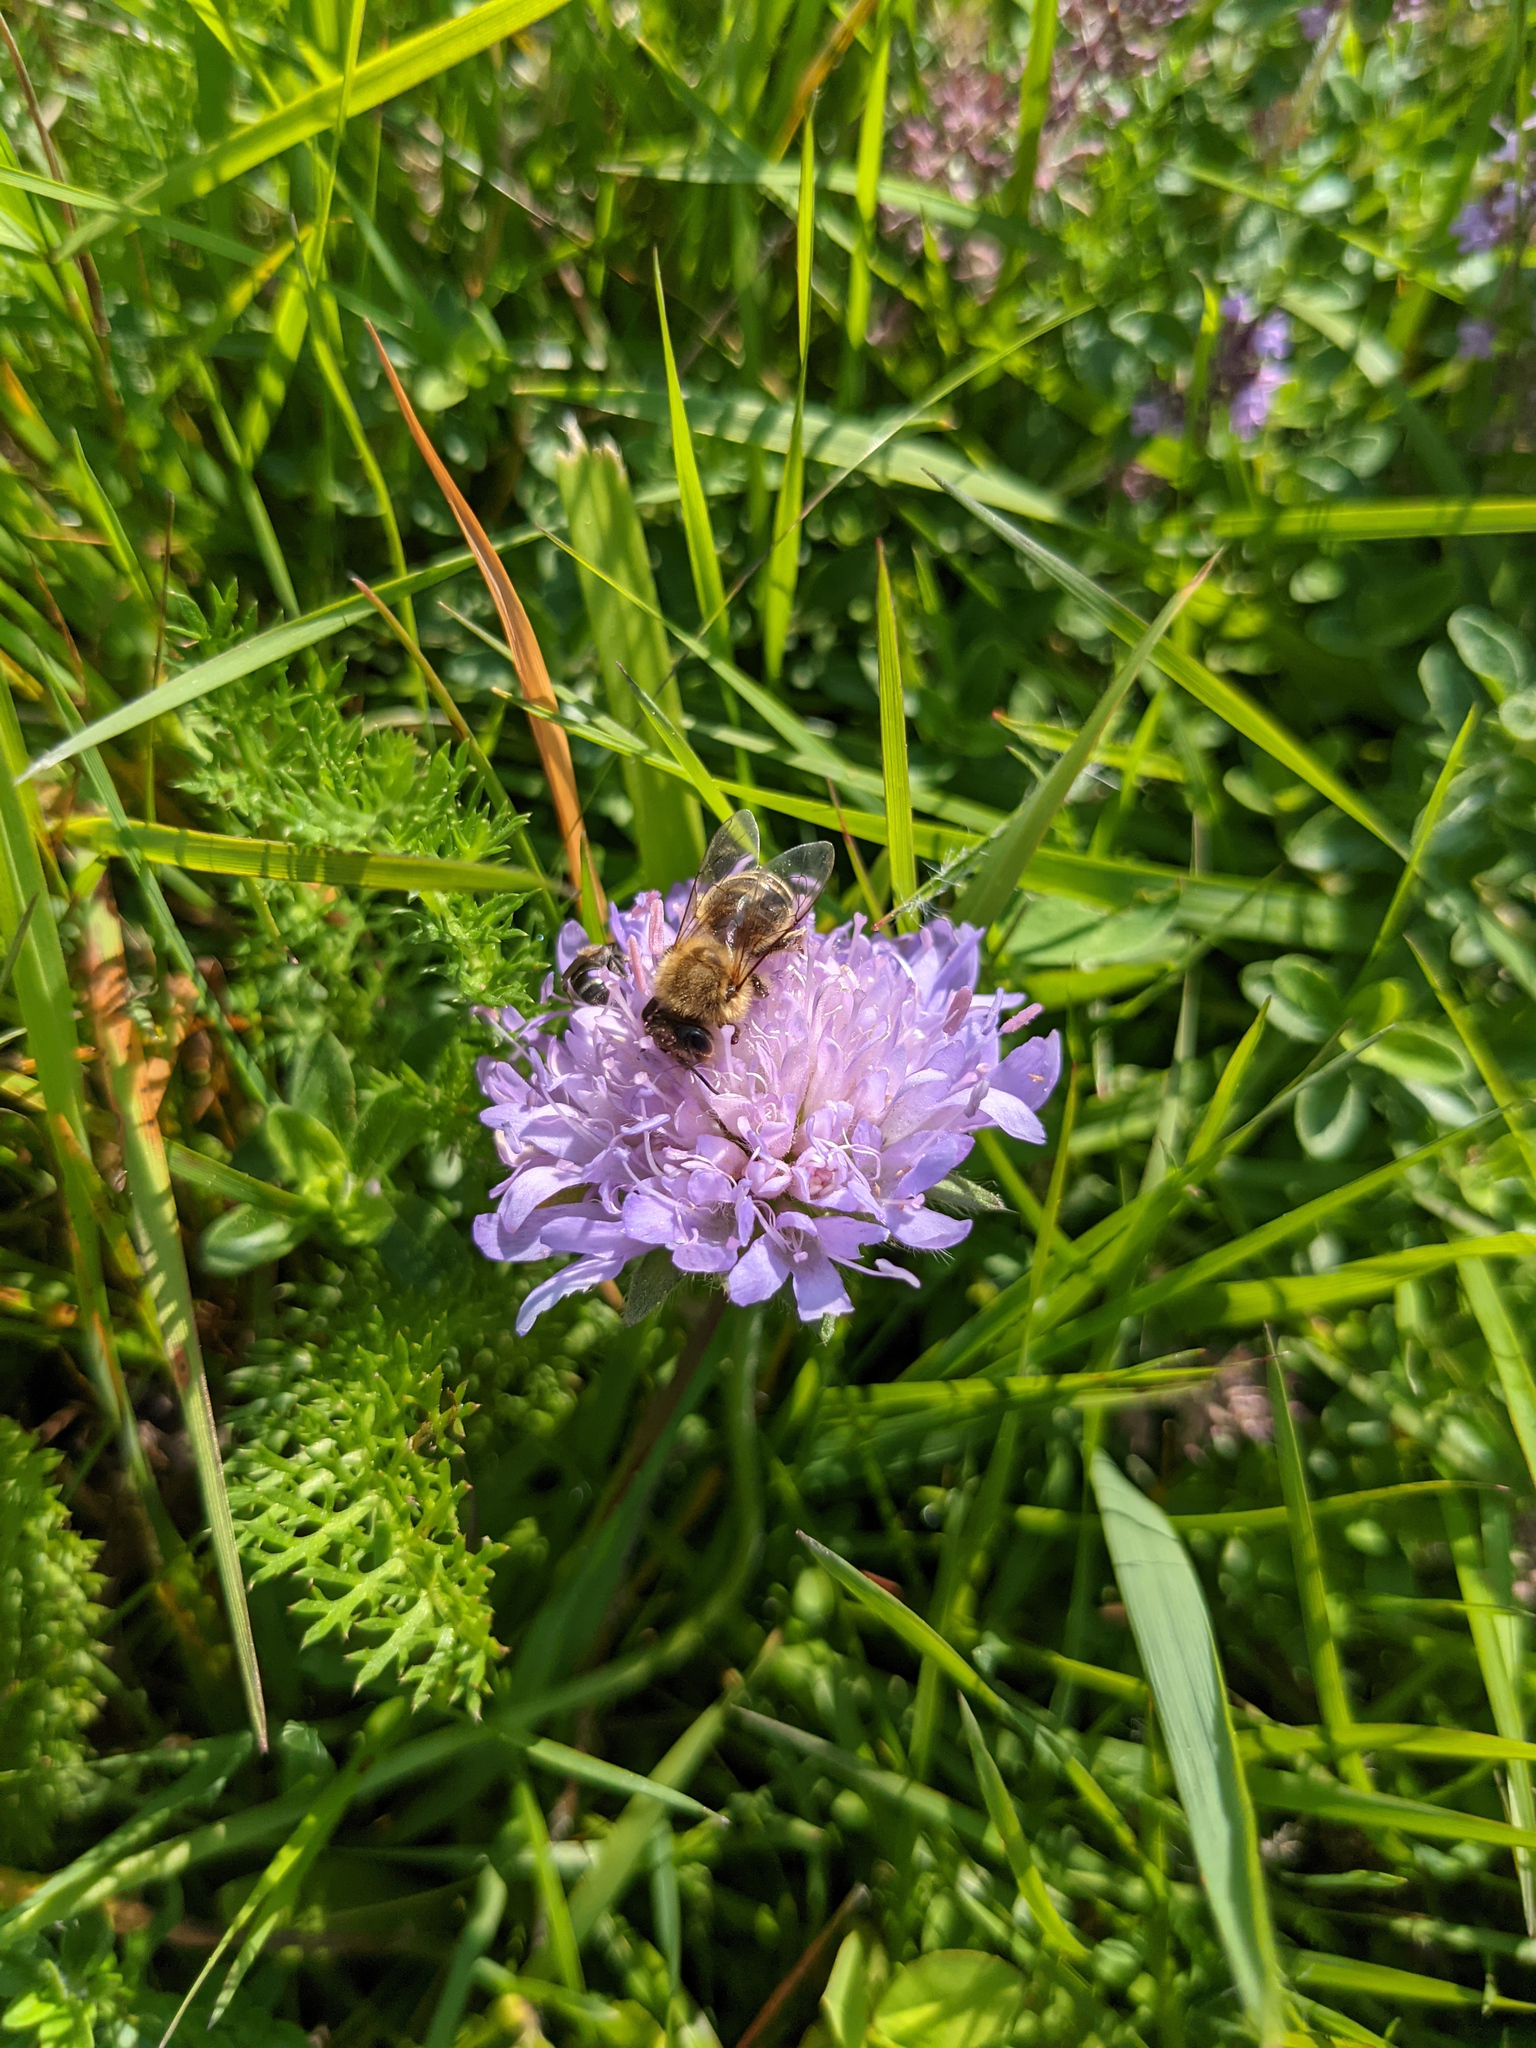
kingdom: Animalia
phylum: Arthropoda
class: Insecta
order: Hymenoptera
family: Apidae
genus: Apis
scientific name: Apis mellifera
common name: Honey bee
